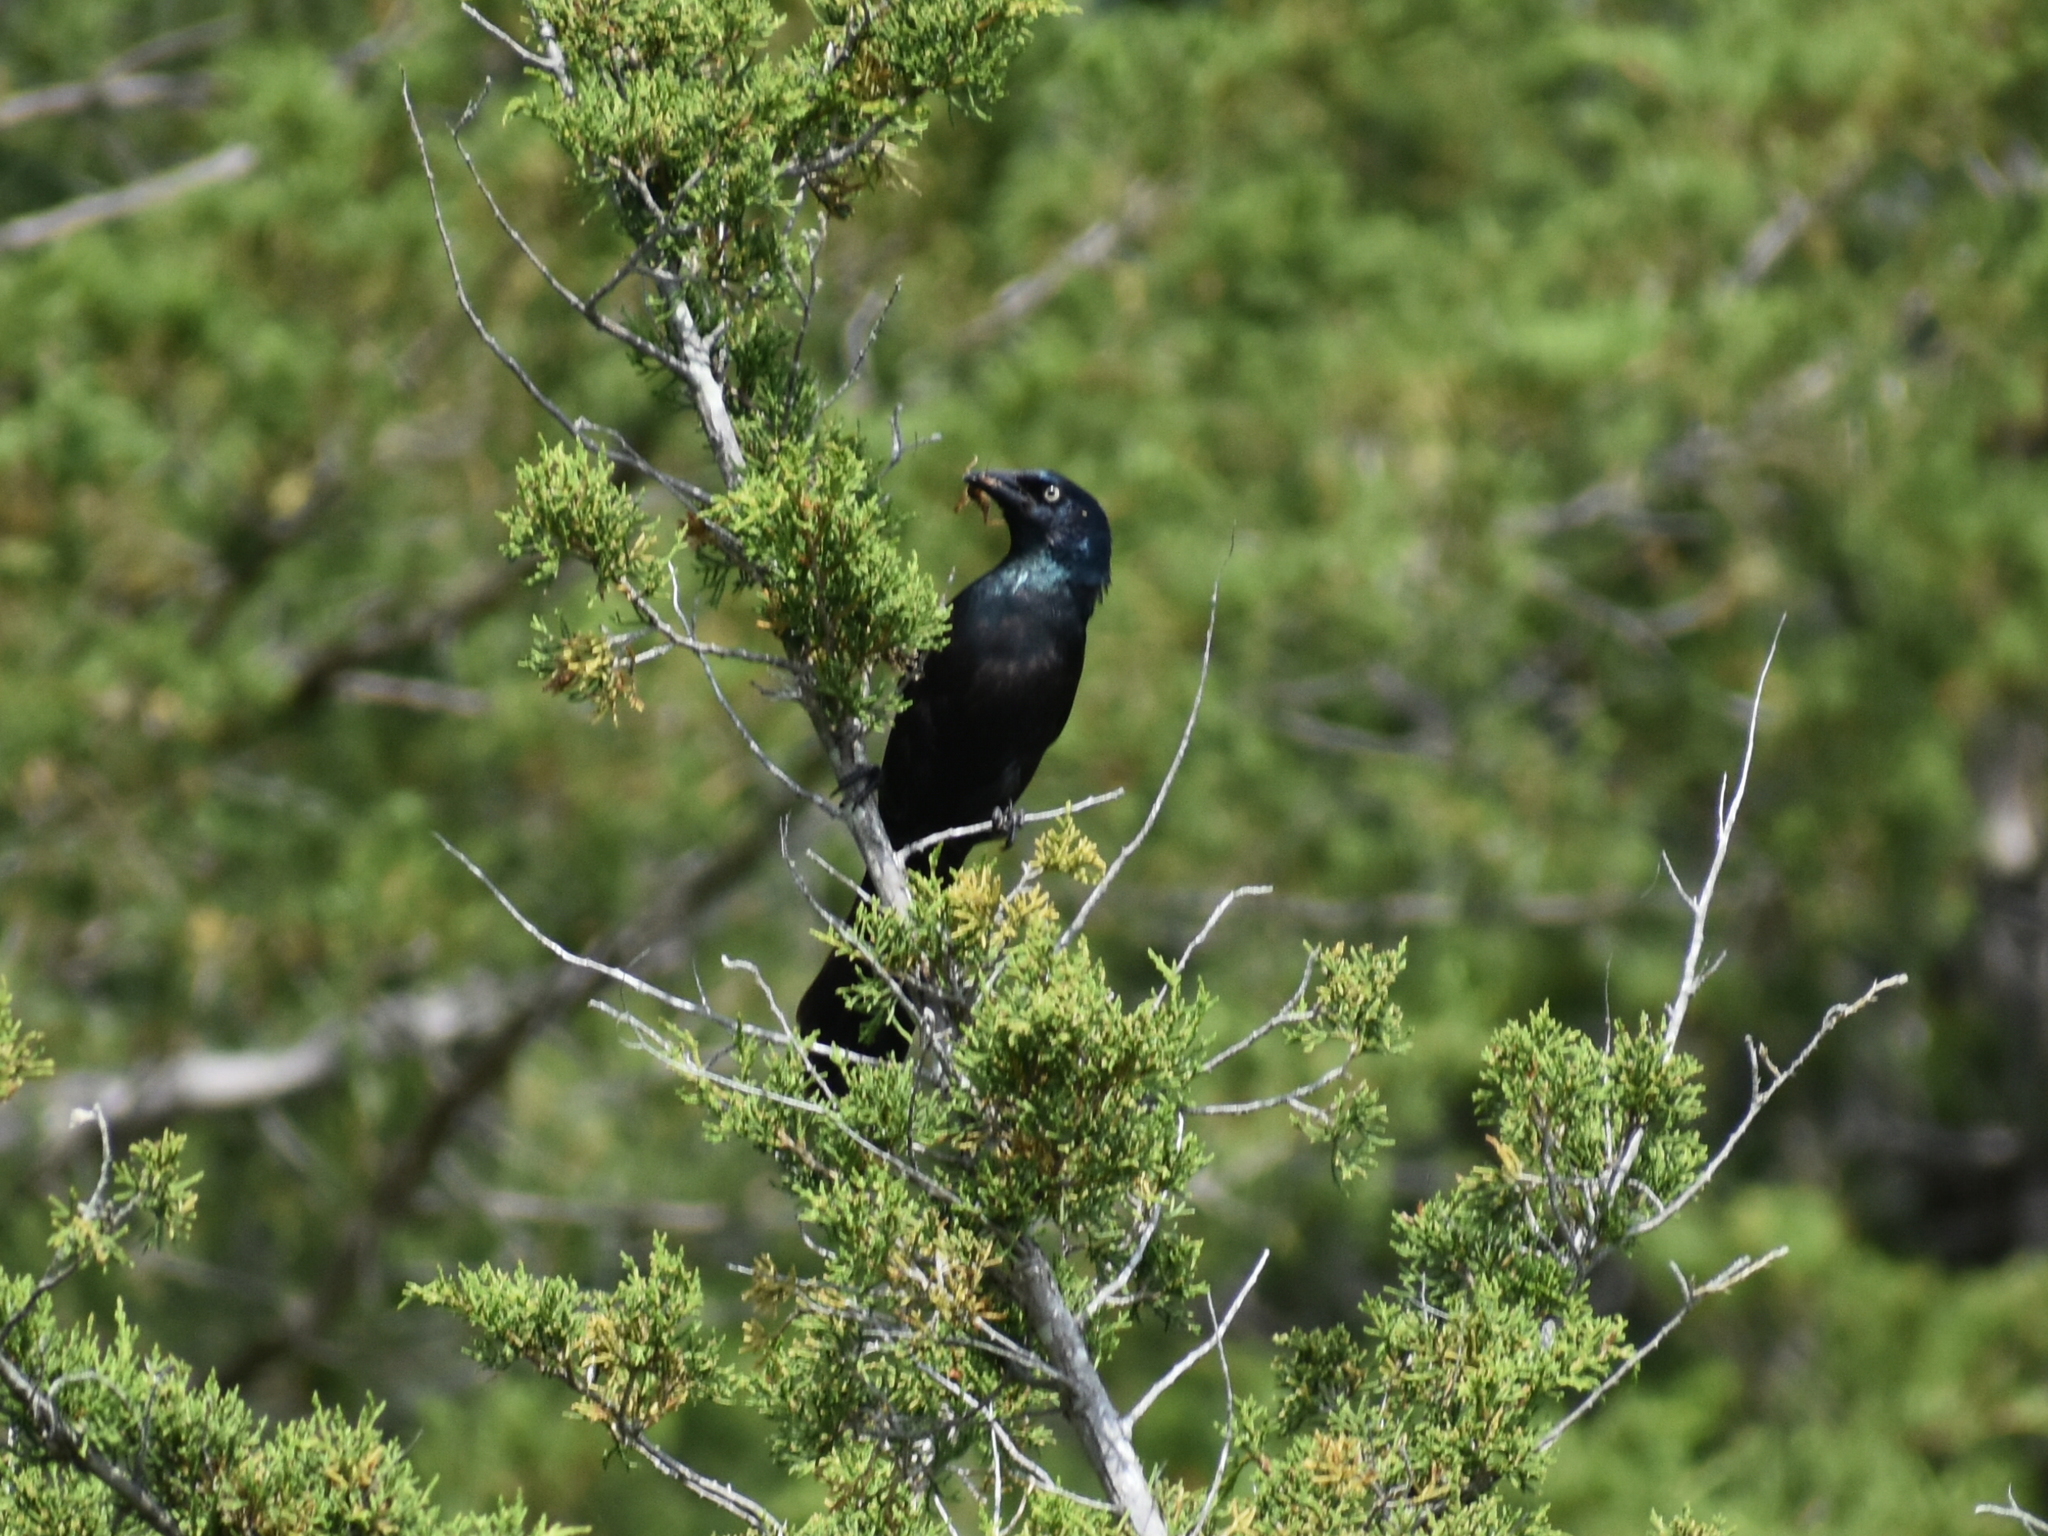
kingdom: Animalia
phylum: Chordata
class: Aves
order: Passeriformes
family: Icteridae
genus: Quiscalus
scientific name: Quiscalus quiscula
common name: Common grackle
